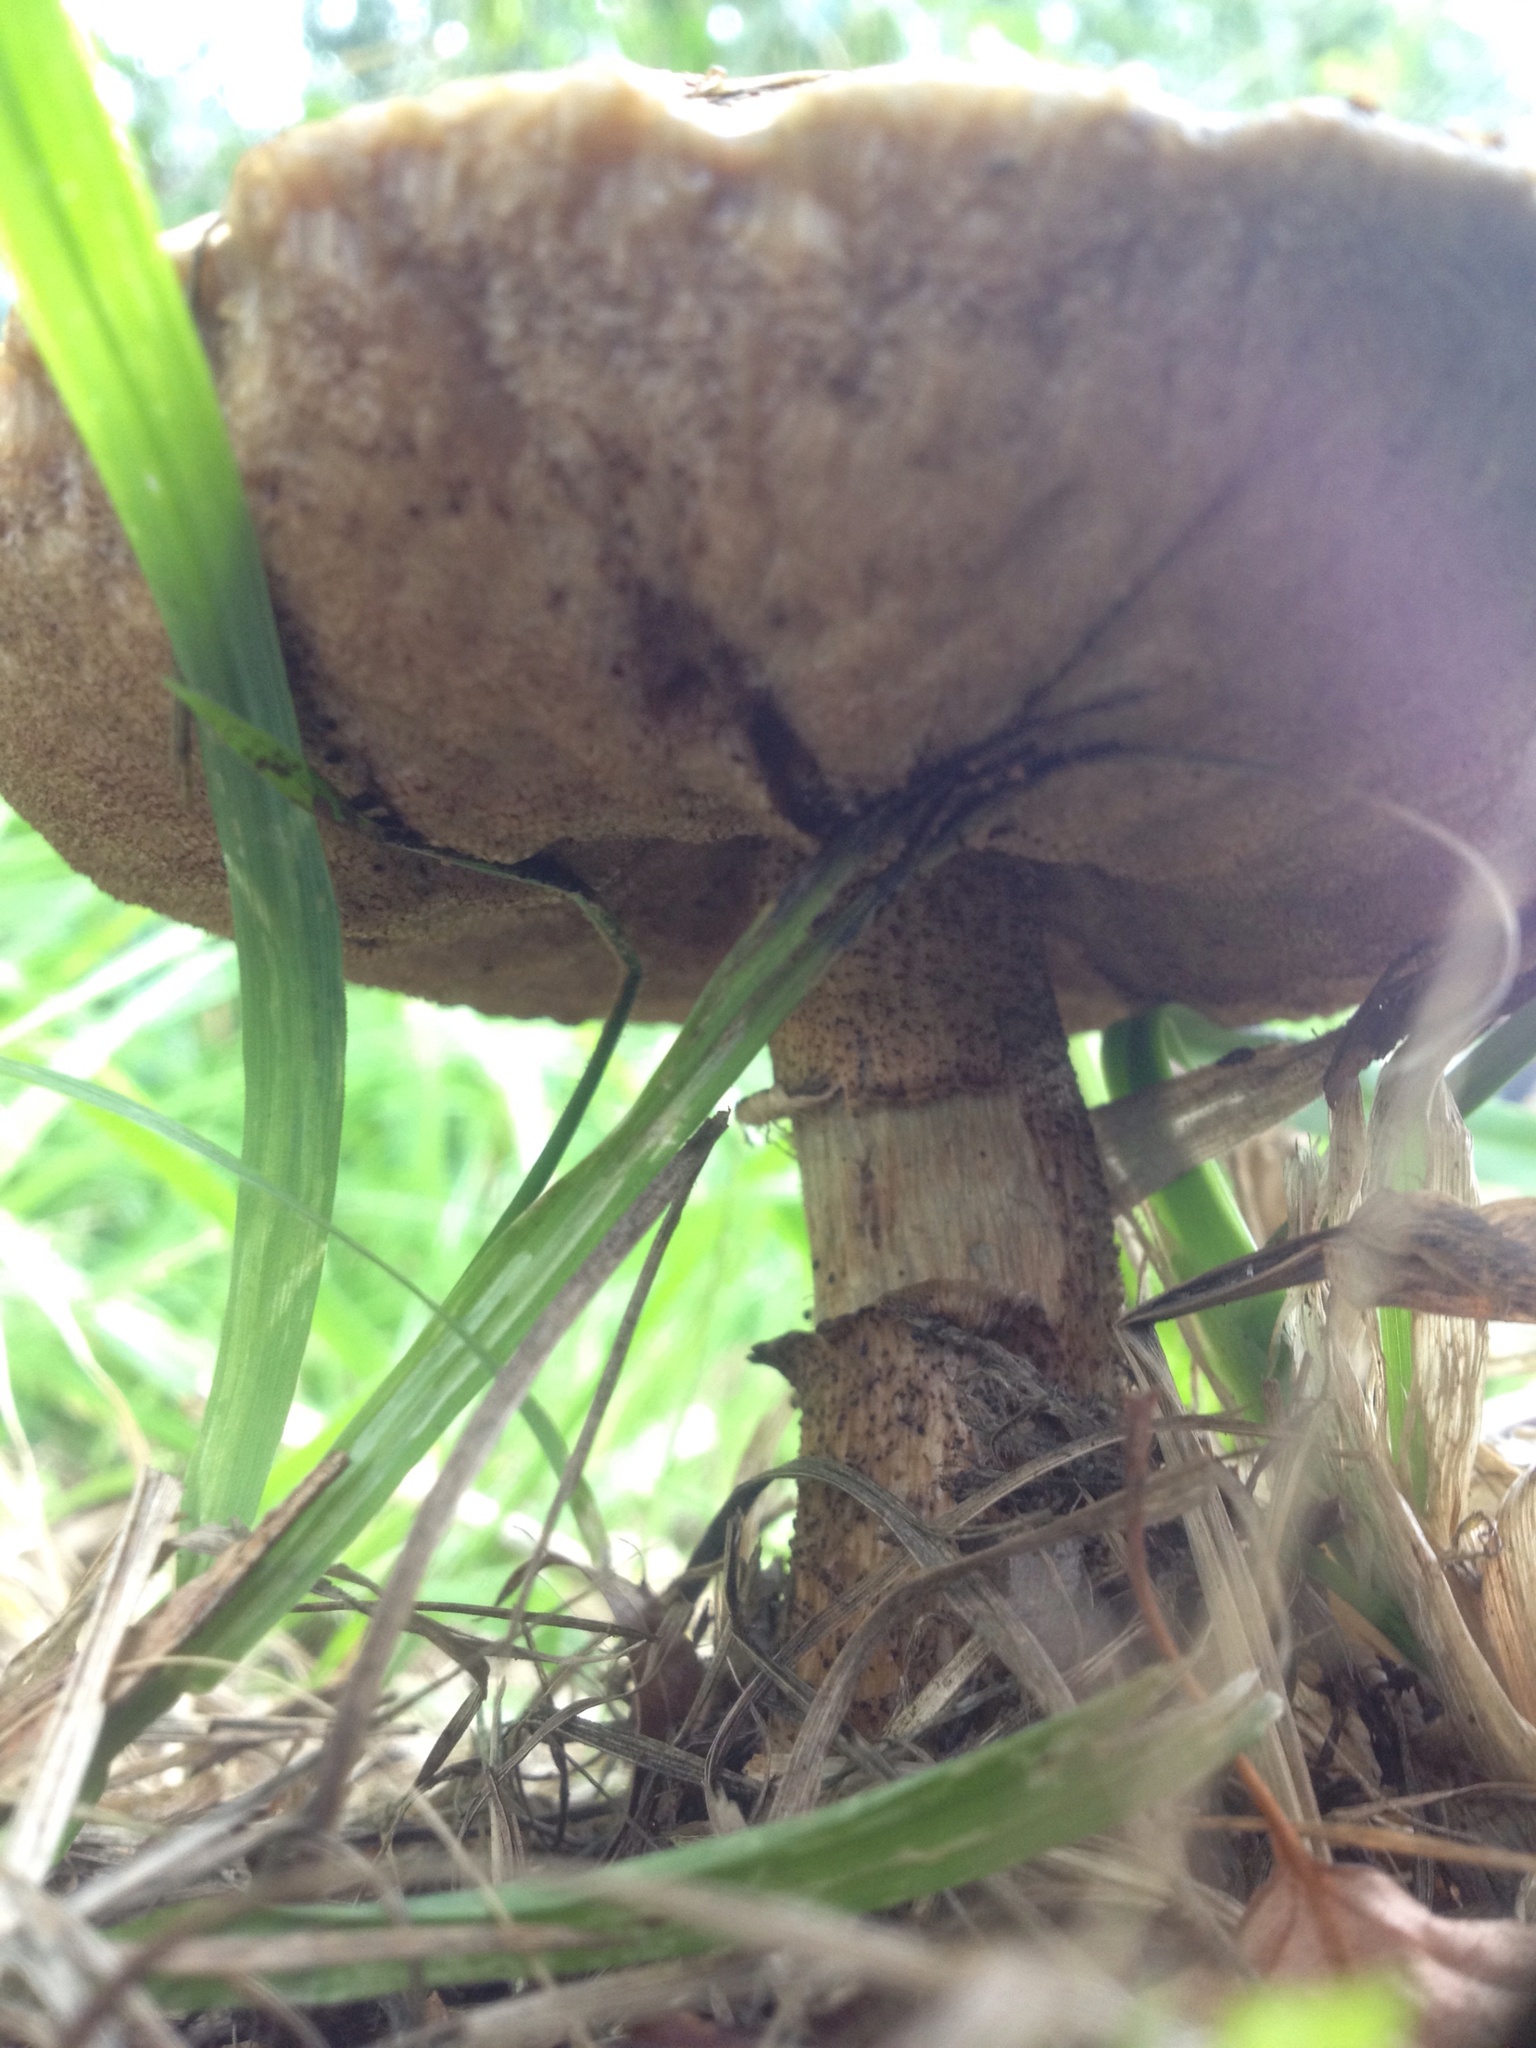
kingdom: Fungi
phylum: Basidiomycota
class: Agaricomycetes
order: Boletales
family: Boletaceae
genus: Leccinum
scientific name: Leccinum scabrum
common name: Blushing bolete
